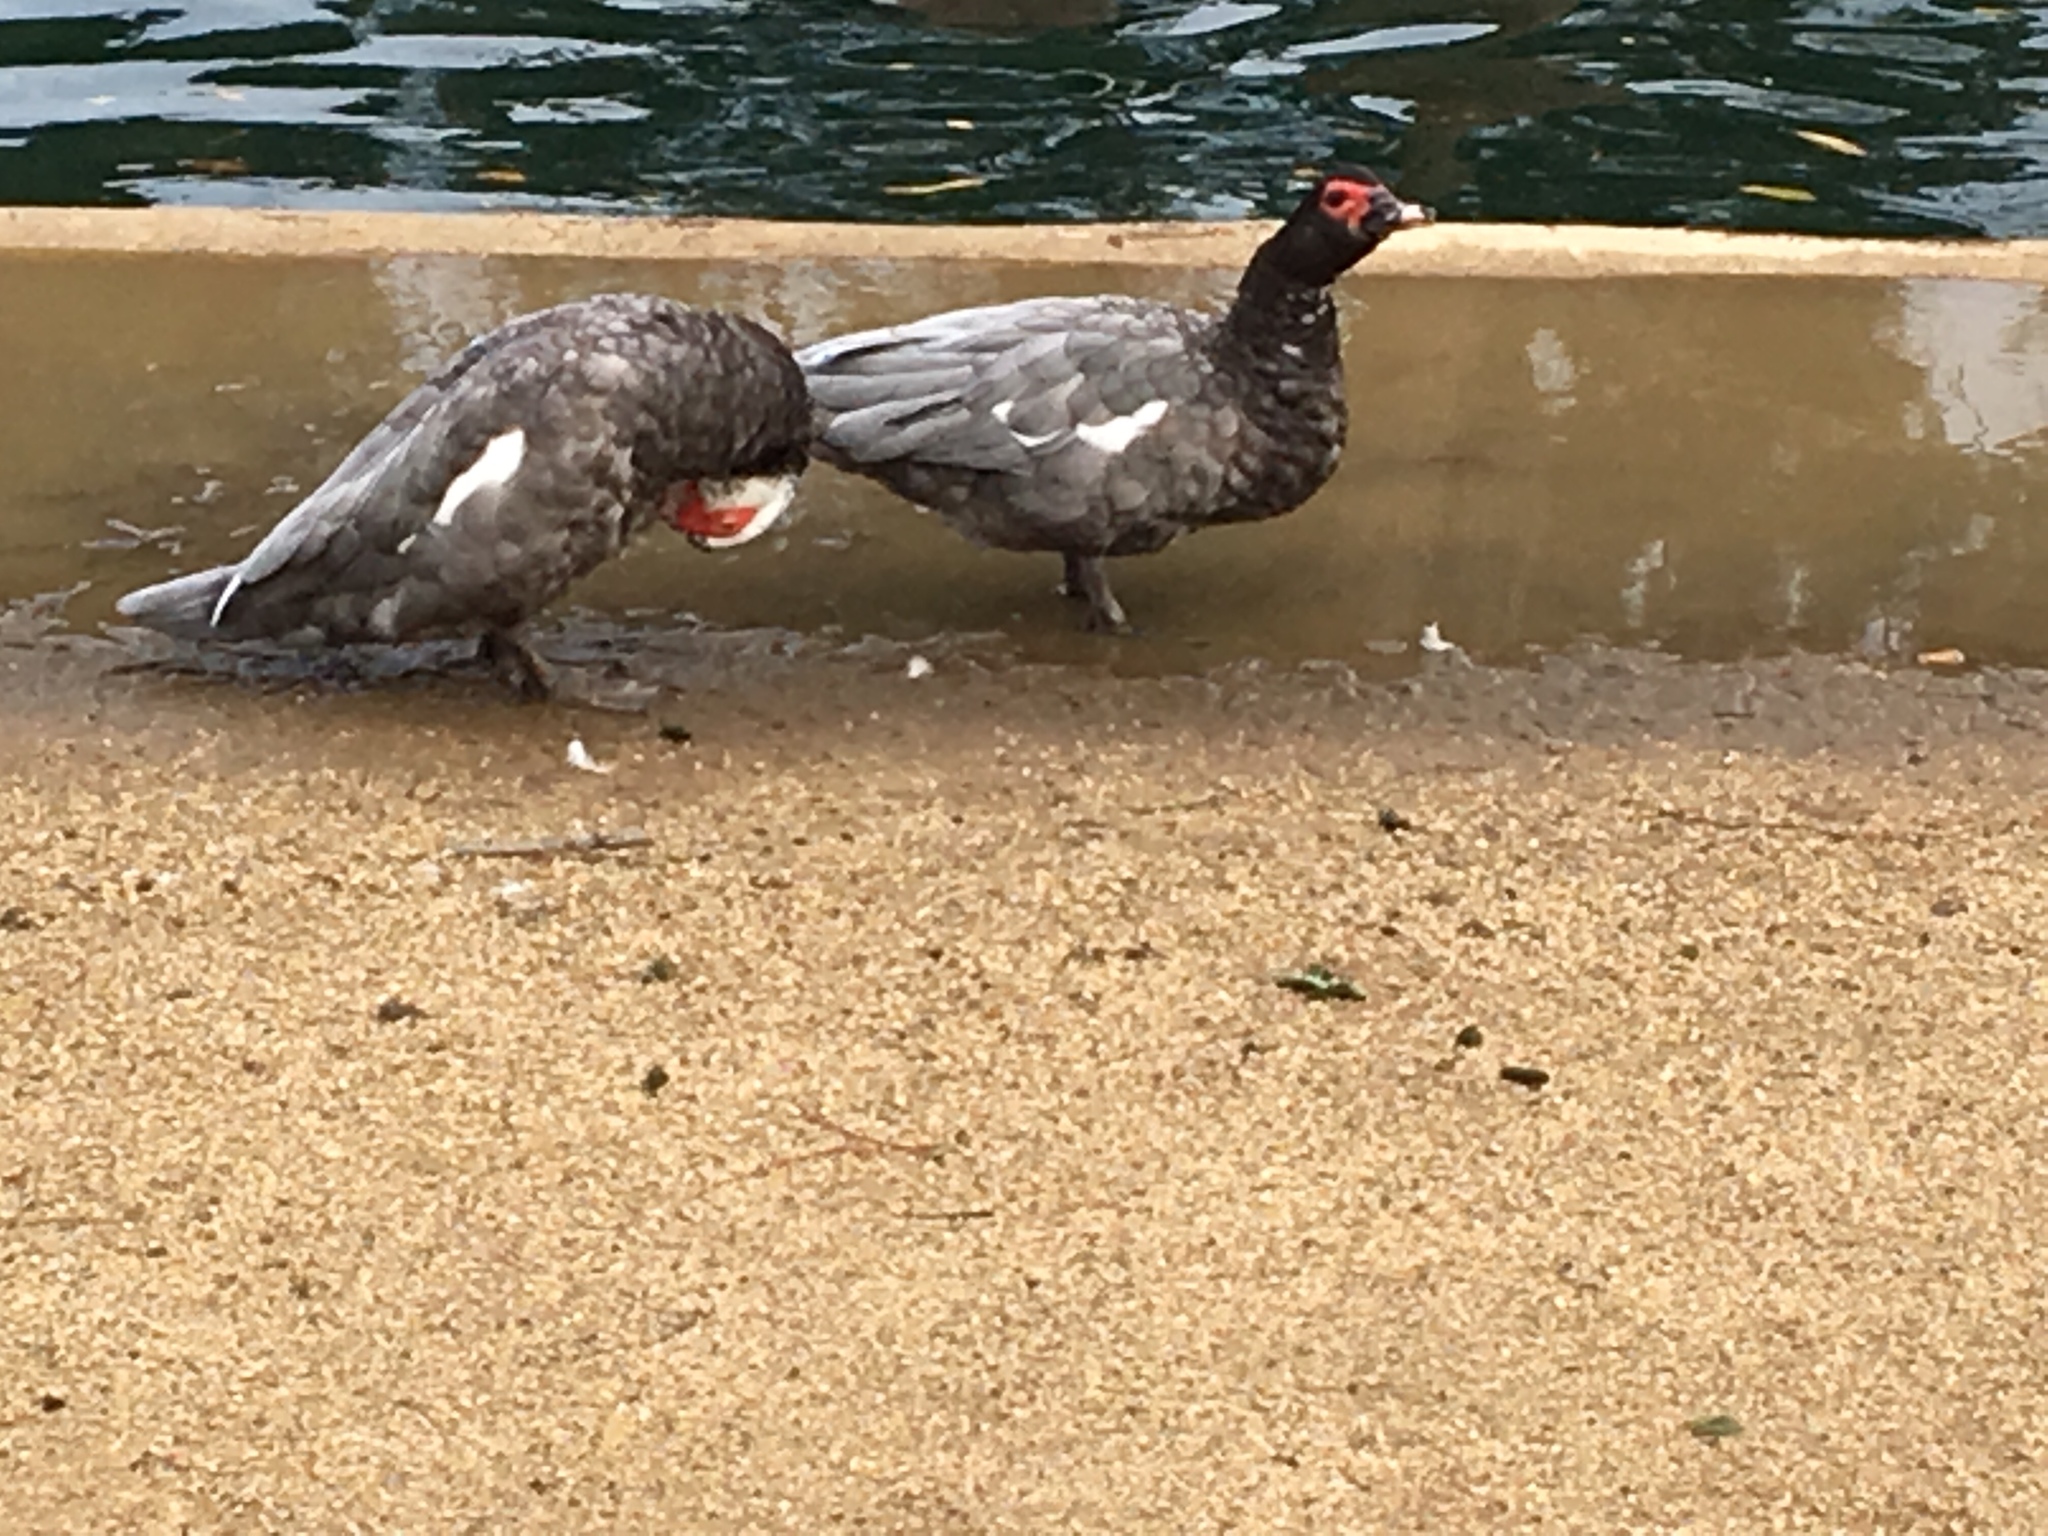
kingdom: Animalia
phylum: Chordata
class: Aves
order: Anseriformes
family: Anatidae
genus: Cairina
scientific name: Cairina moschata
